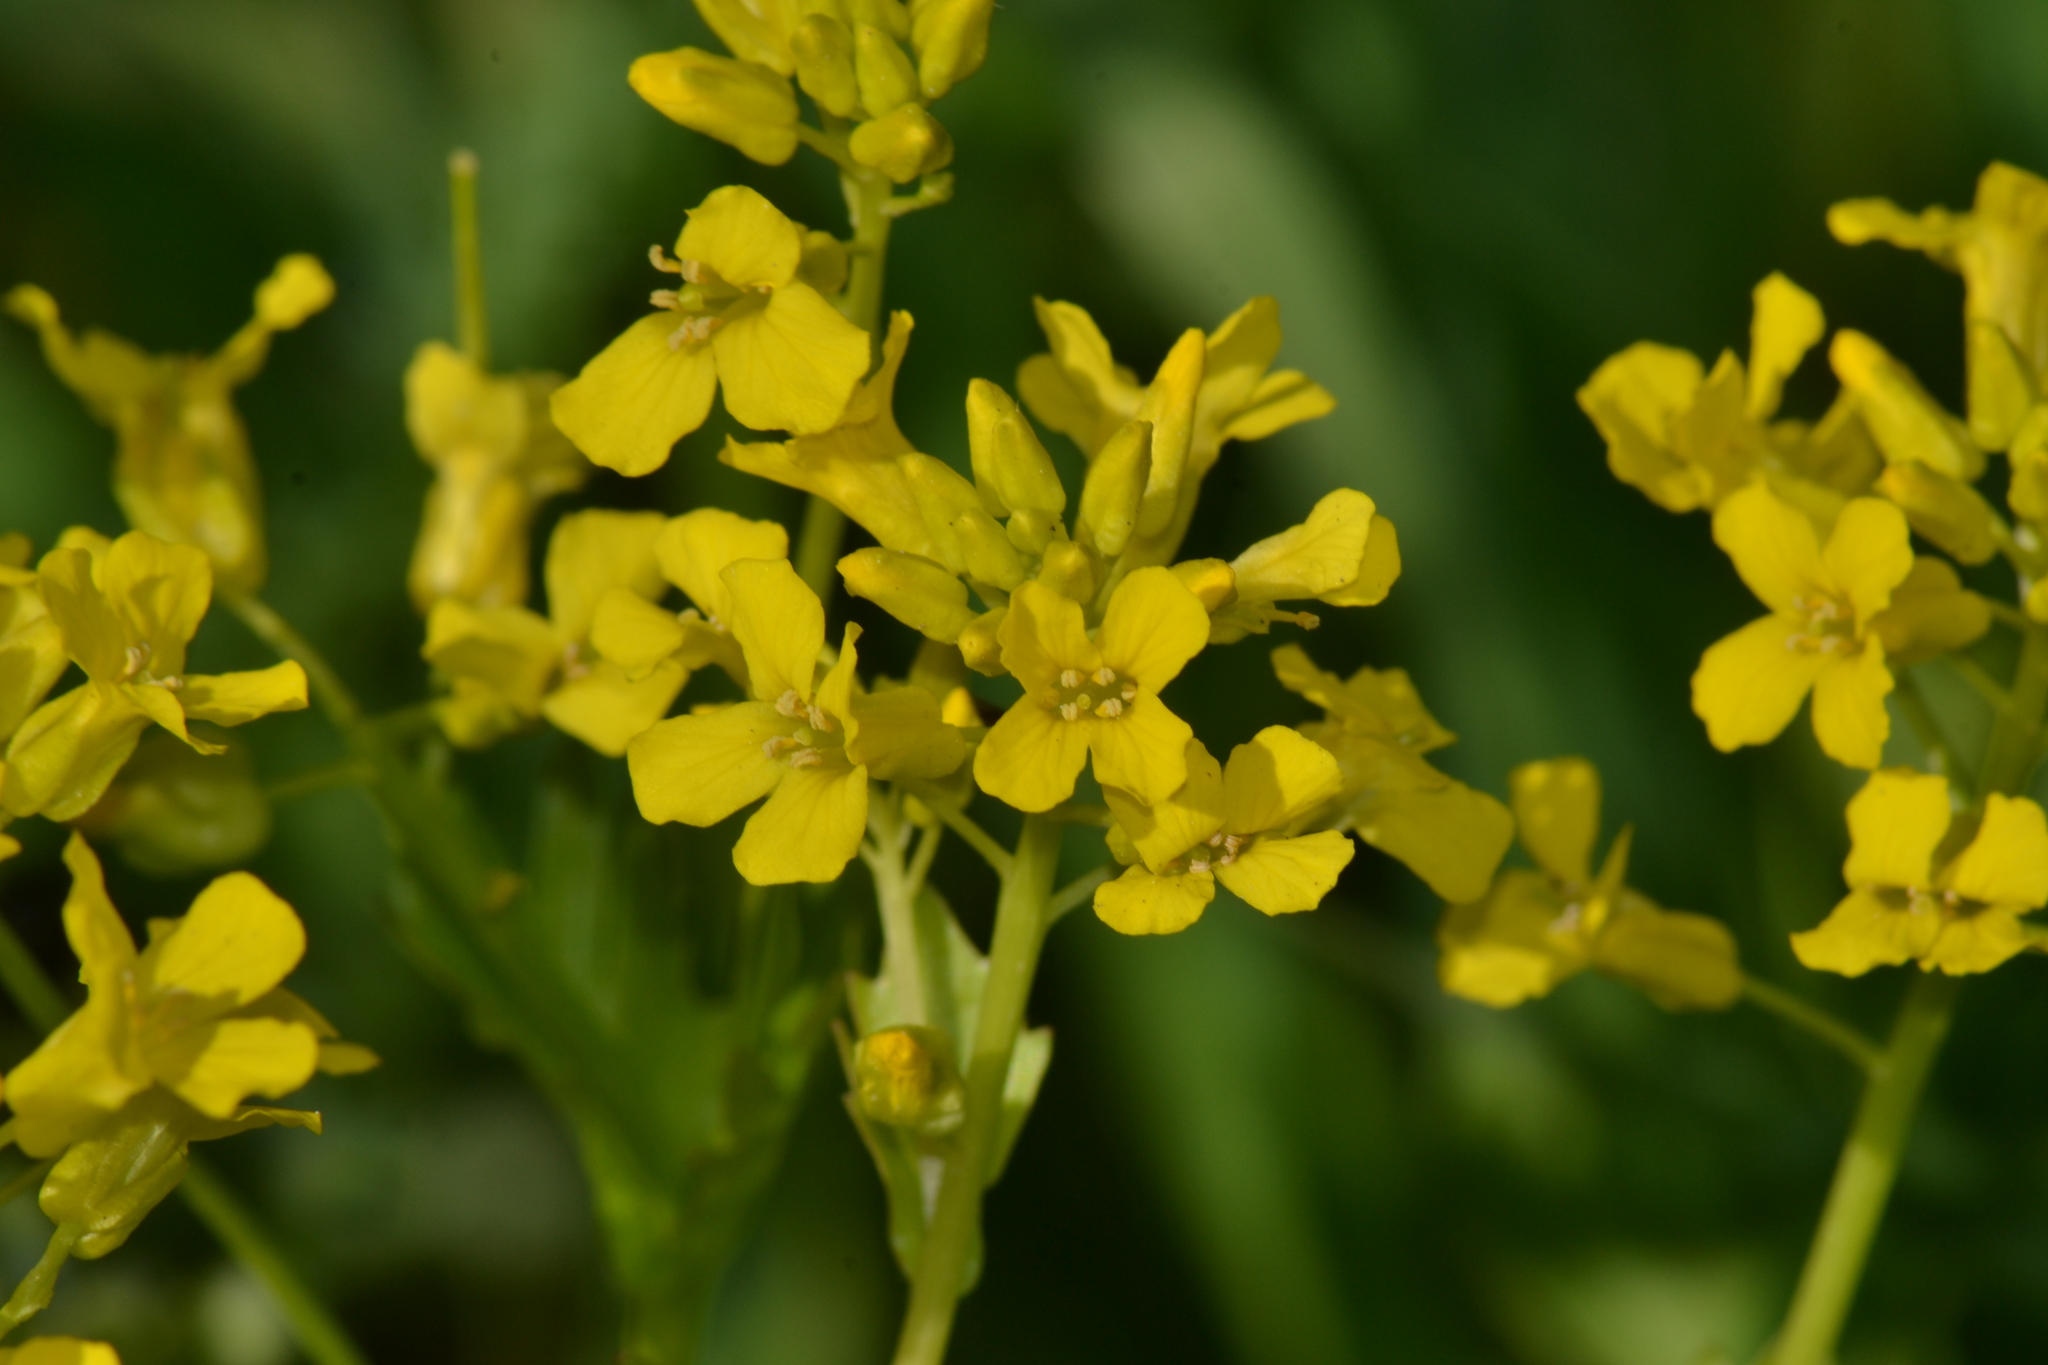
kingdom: Plantae
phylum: Tracheophyta
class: Magnoliopsida
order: Brassicales
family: Brassicaceae
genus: Barbarea
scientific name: Barbarea vulgaris
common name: Cressy-greens
